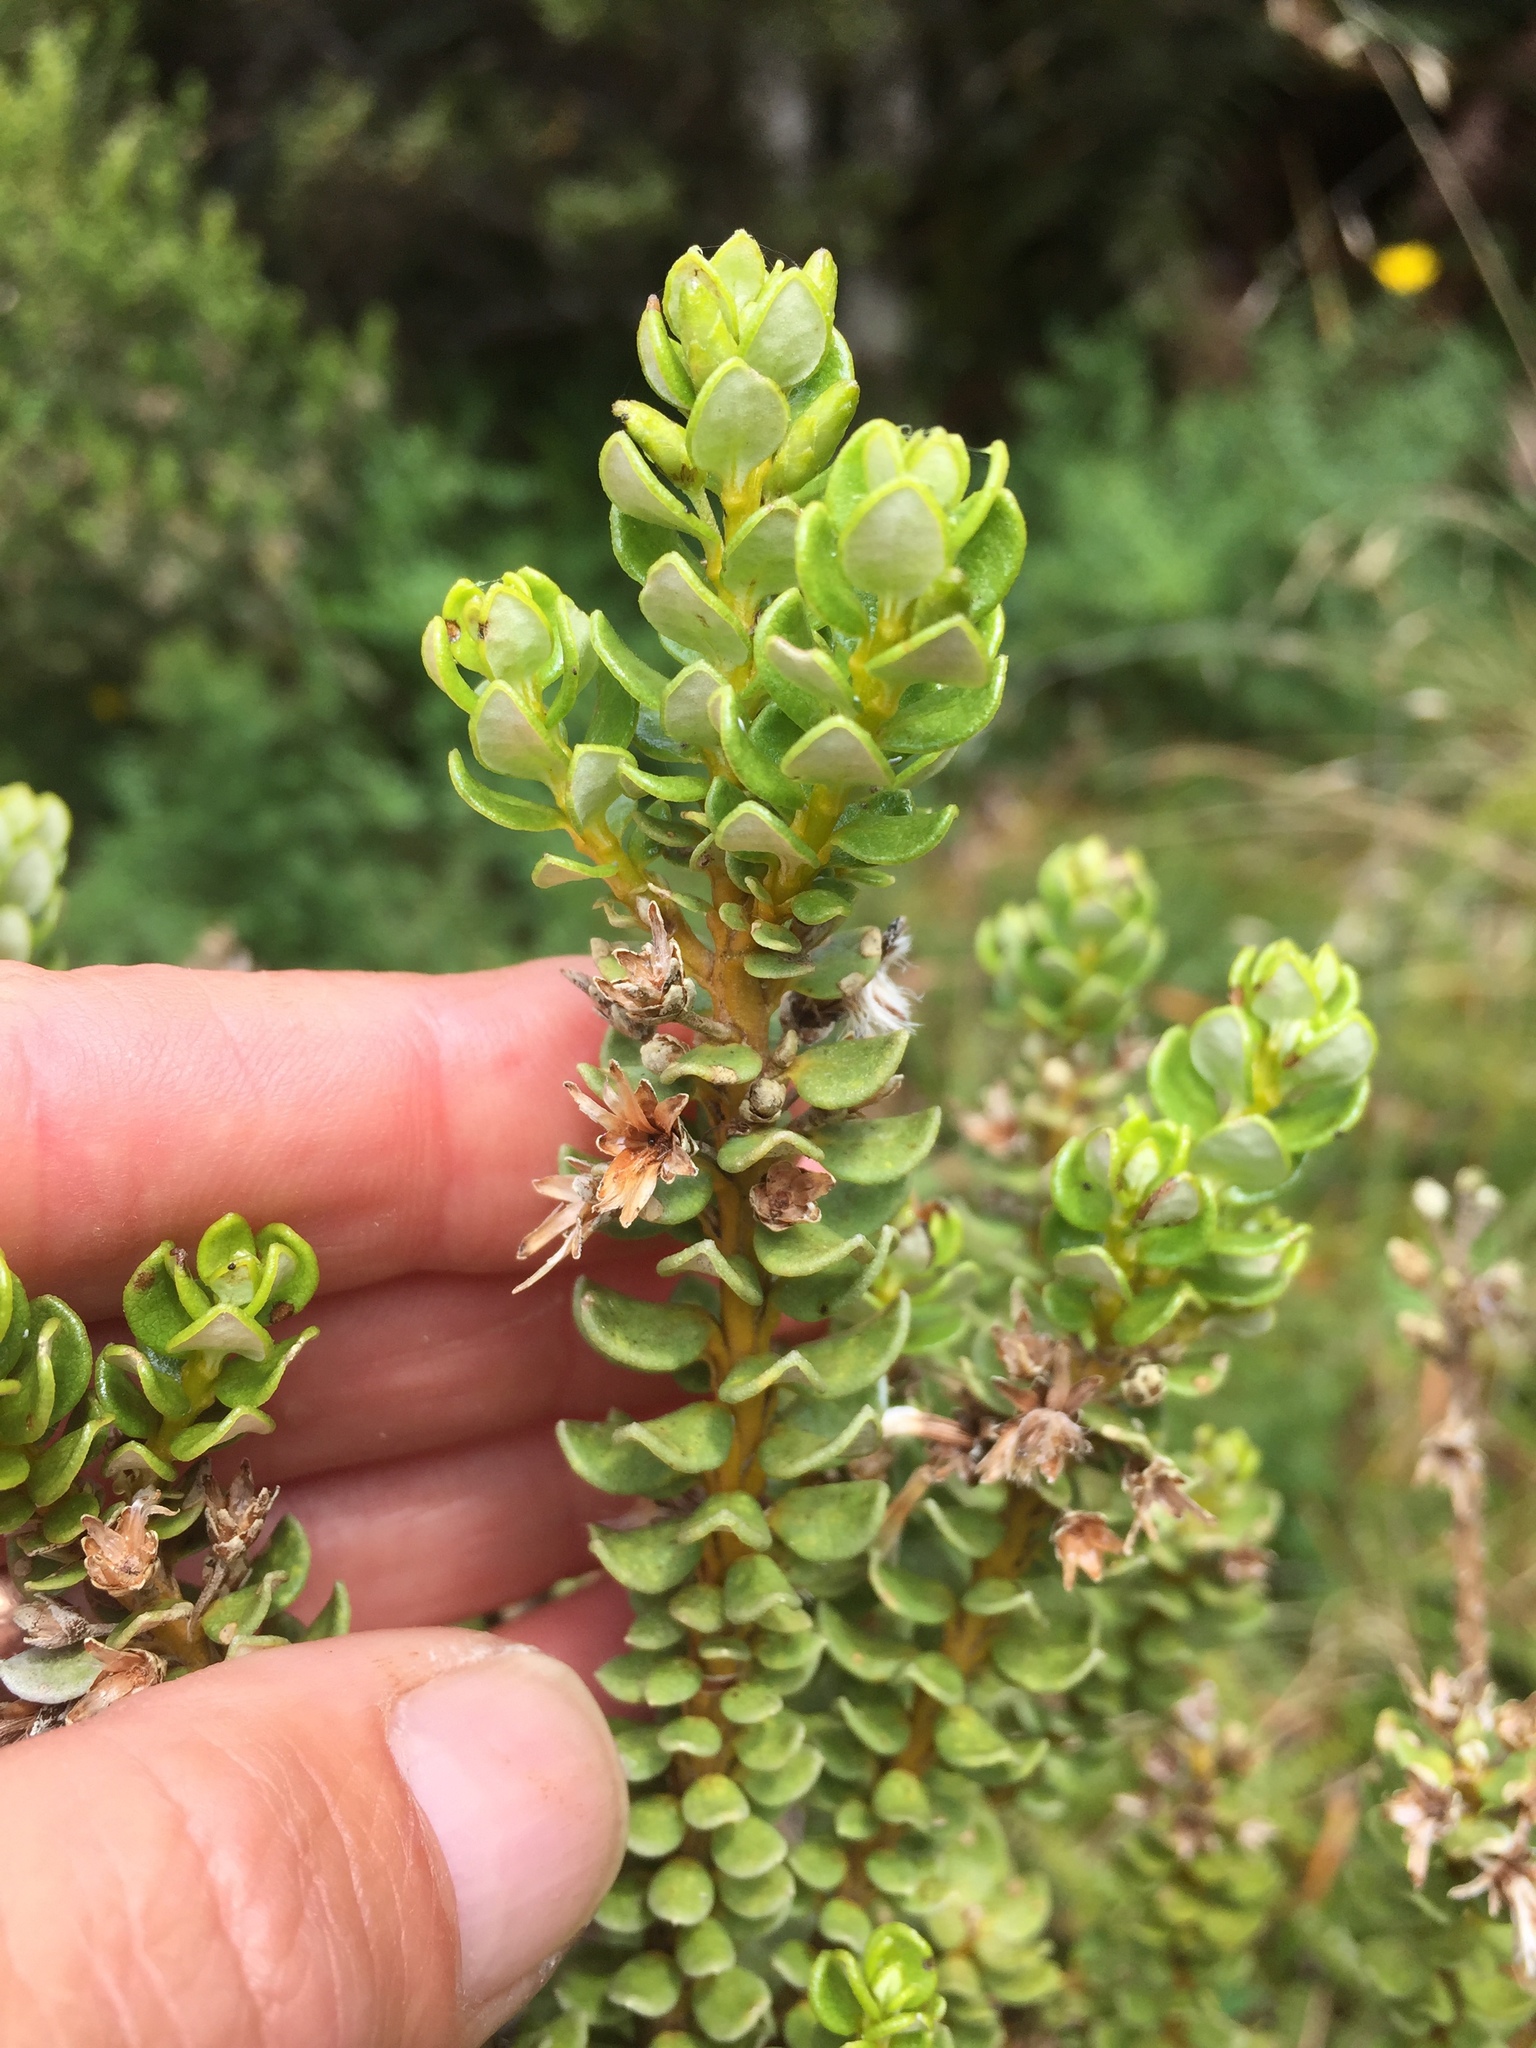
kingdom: Plantae
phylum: Tracheophyta
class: Magnoliopsida
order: Asterales
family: Asteraceae
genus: Olearia
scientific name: Olearia nummularifolia
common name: Sticky daisybush
